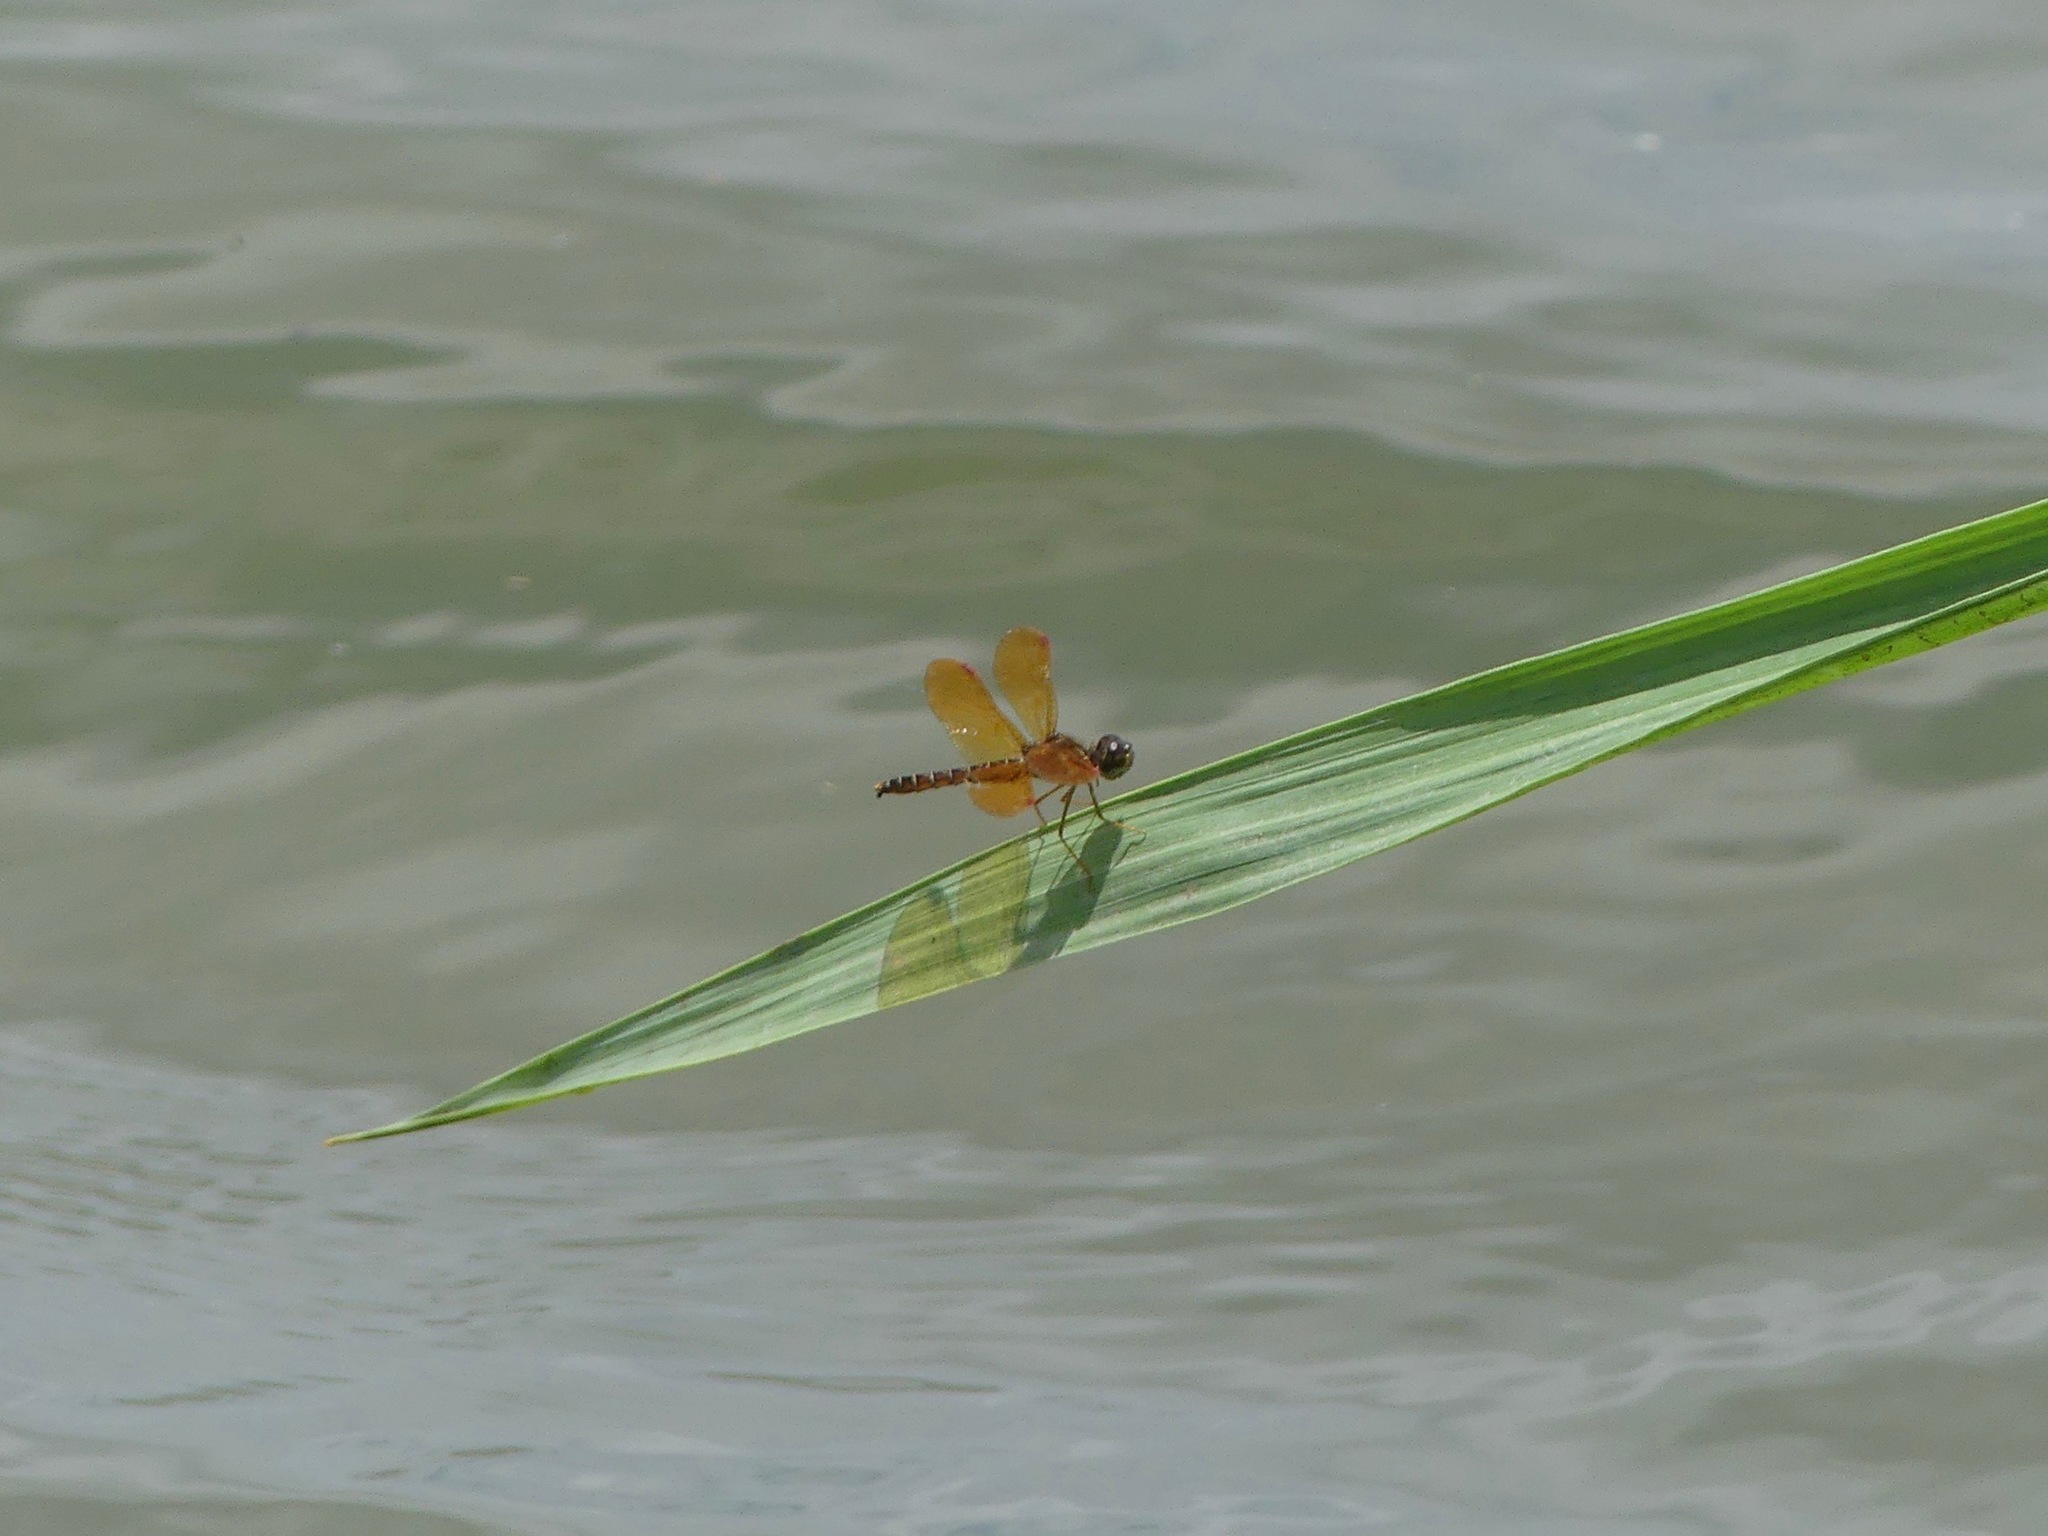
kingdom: Animalia
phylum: Arthropoda
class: Insecta
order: Odonata
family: Libellulidae
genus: Perithemis
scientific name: Perithemis tenera
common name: Eastern amberwing
